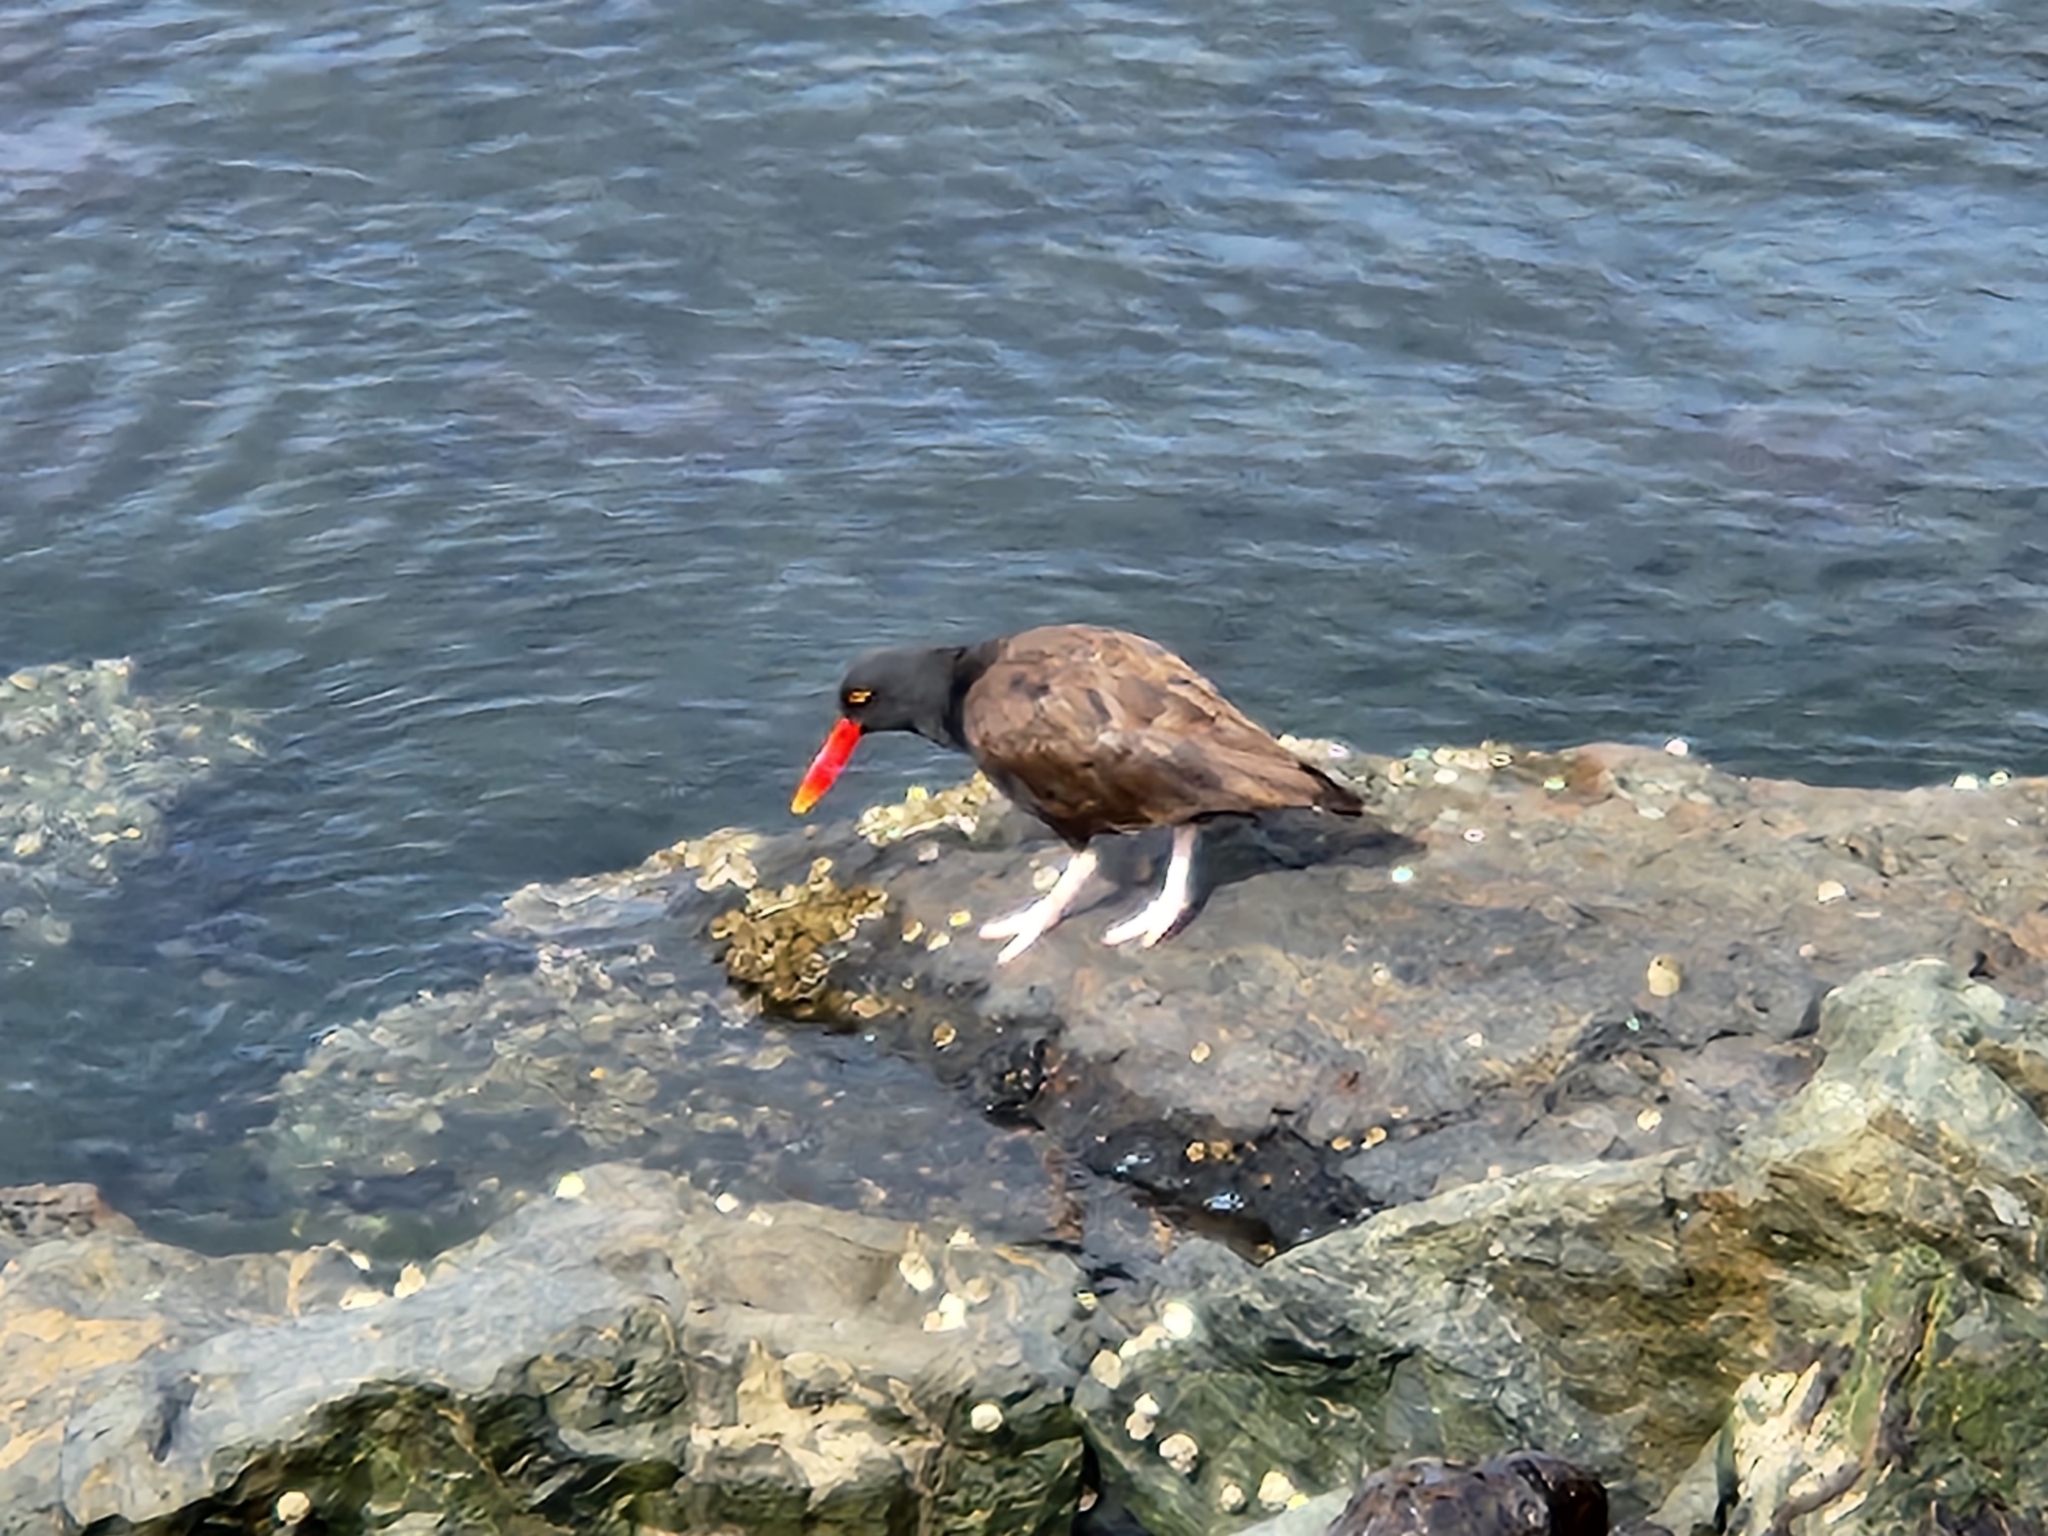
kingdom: Animalia
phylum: Chordata
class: Aves
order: Charadriiformes
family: Haematopodidae
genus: Haematopus
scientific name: Haematopus ater
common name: Blackish oystercatcher
